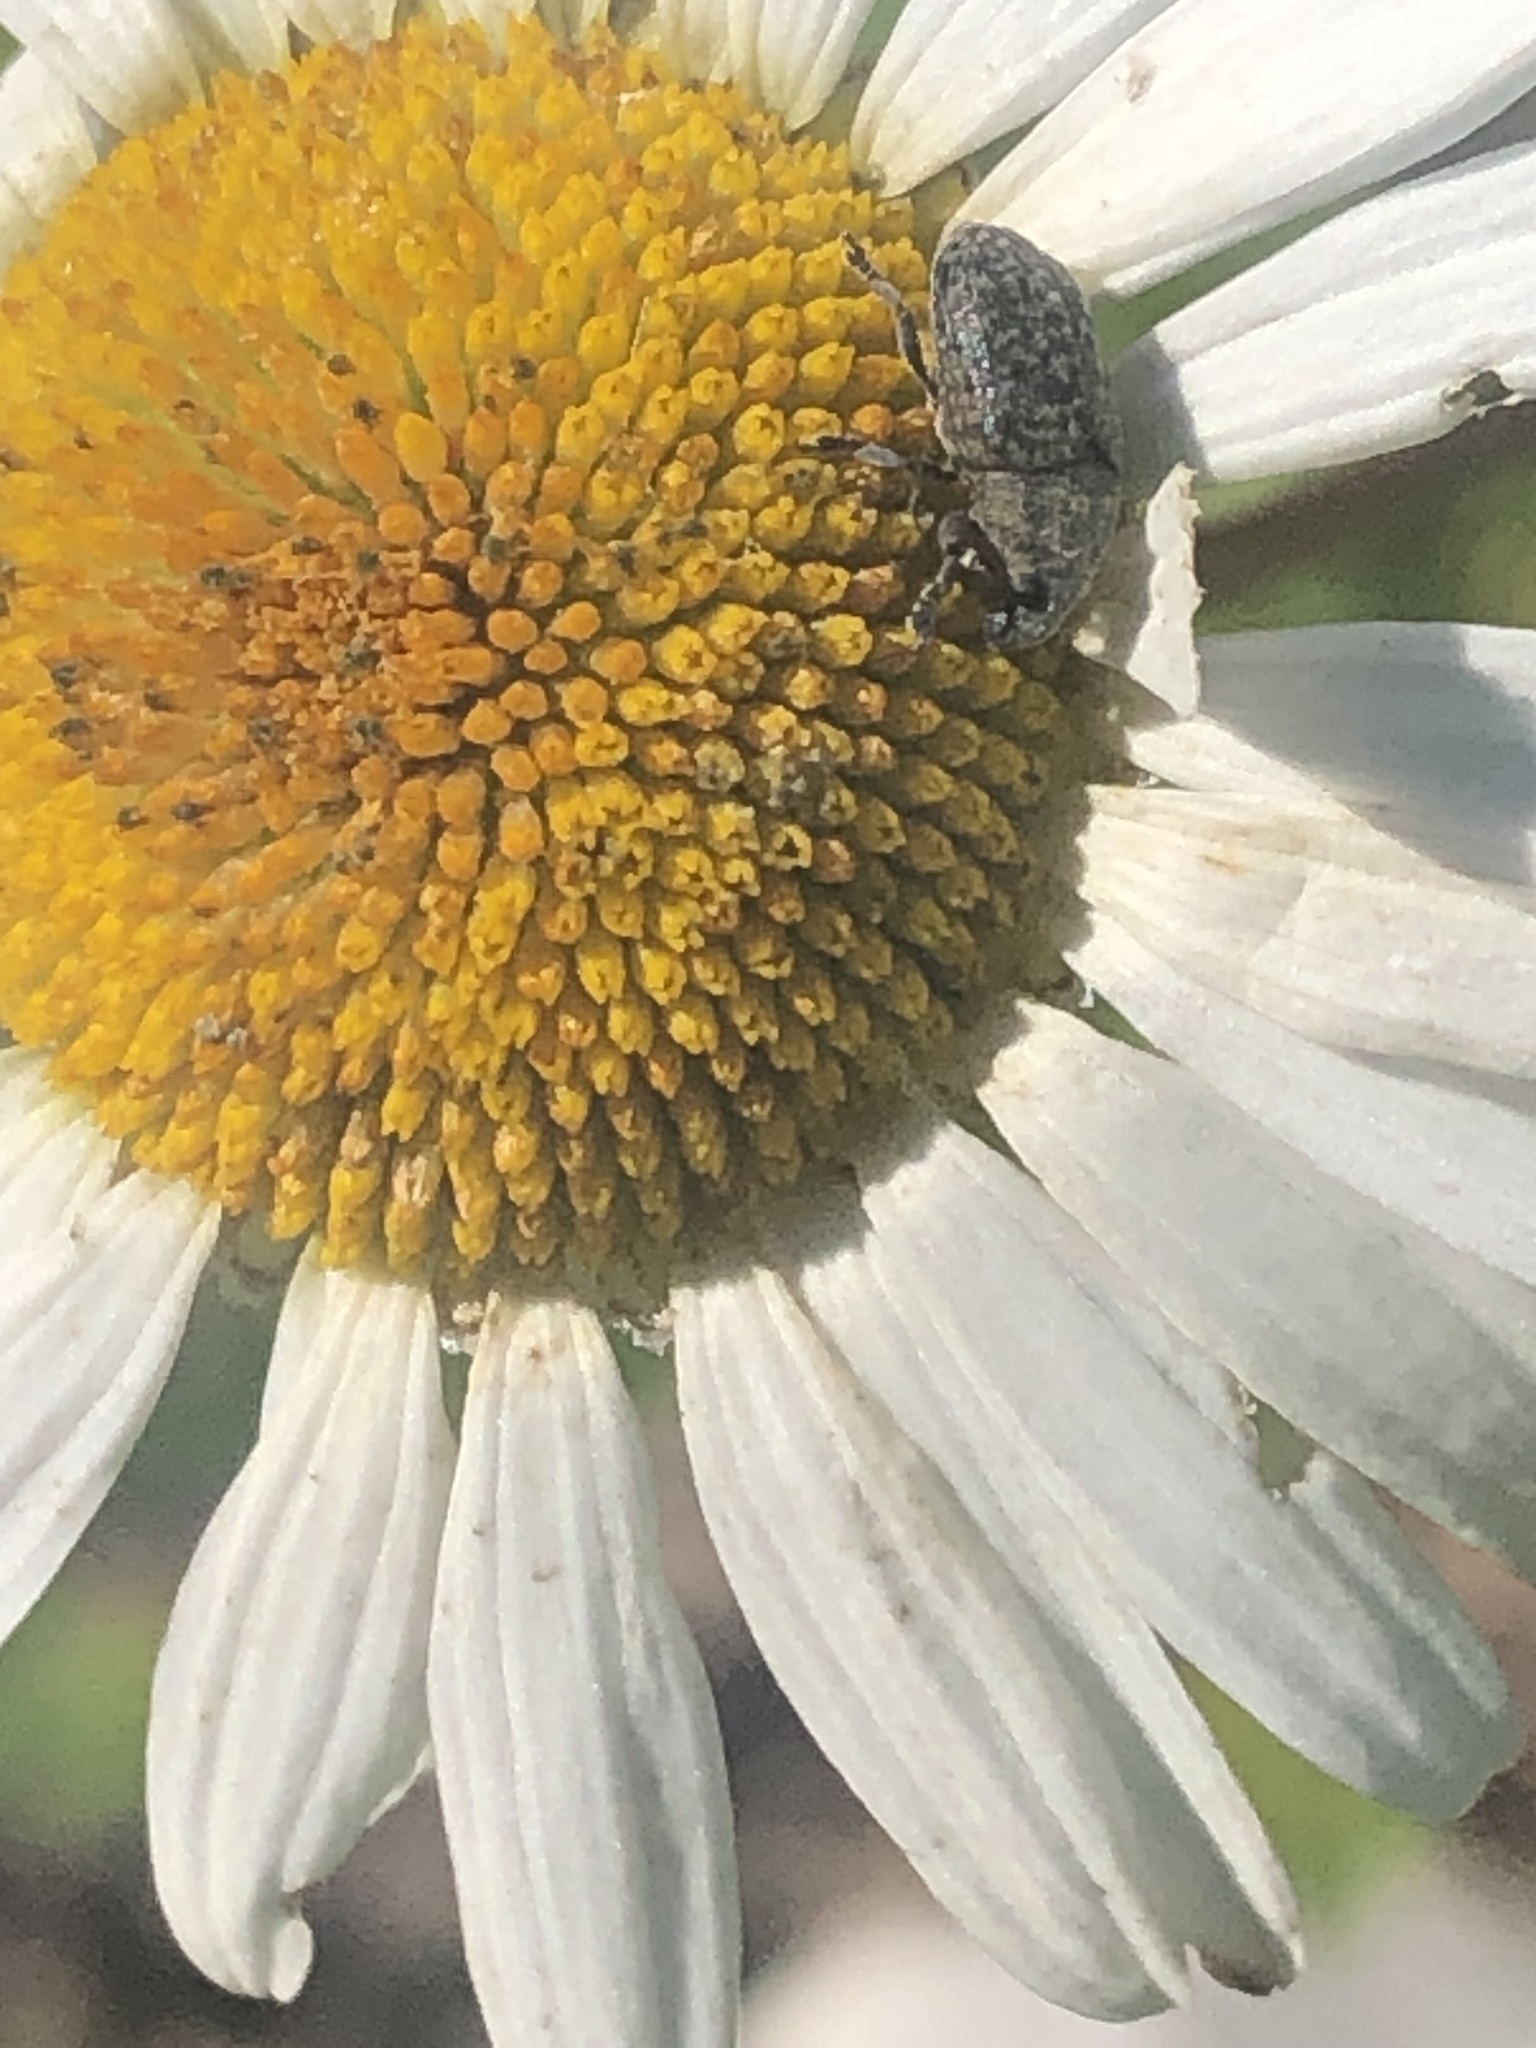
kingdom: Animalia
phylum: Arthropoda
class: Insecta
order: Coleoptera
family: Curculionidae
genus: Larinus
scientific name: Larinus obtusus
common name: Weevil
